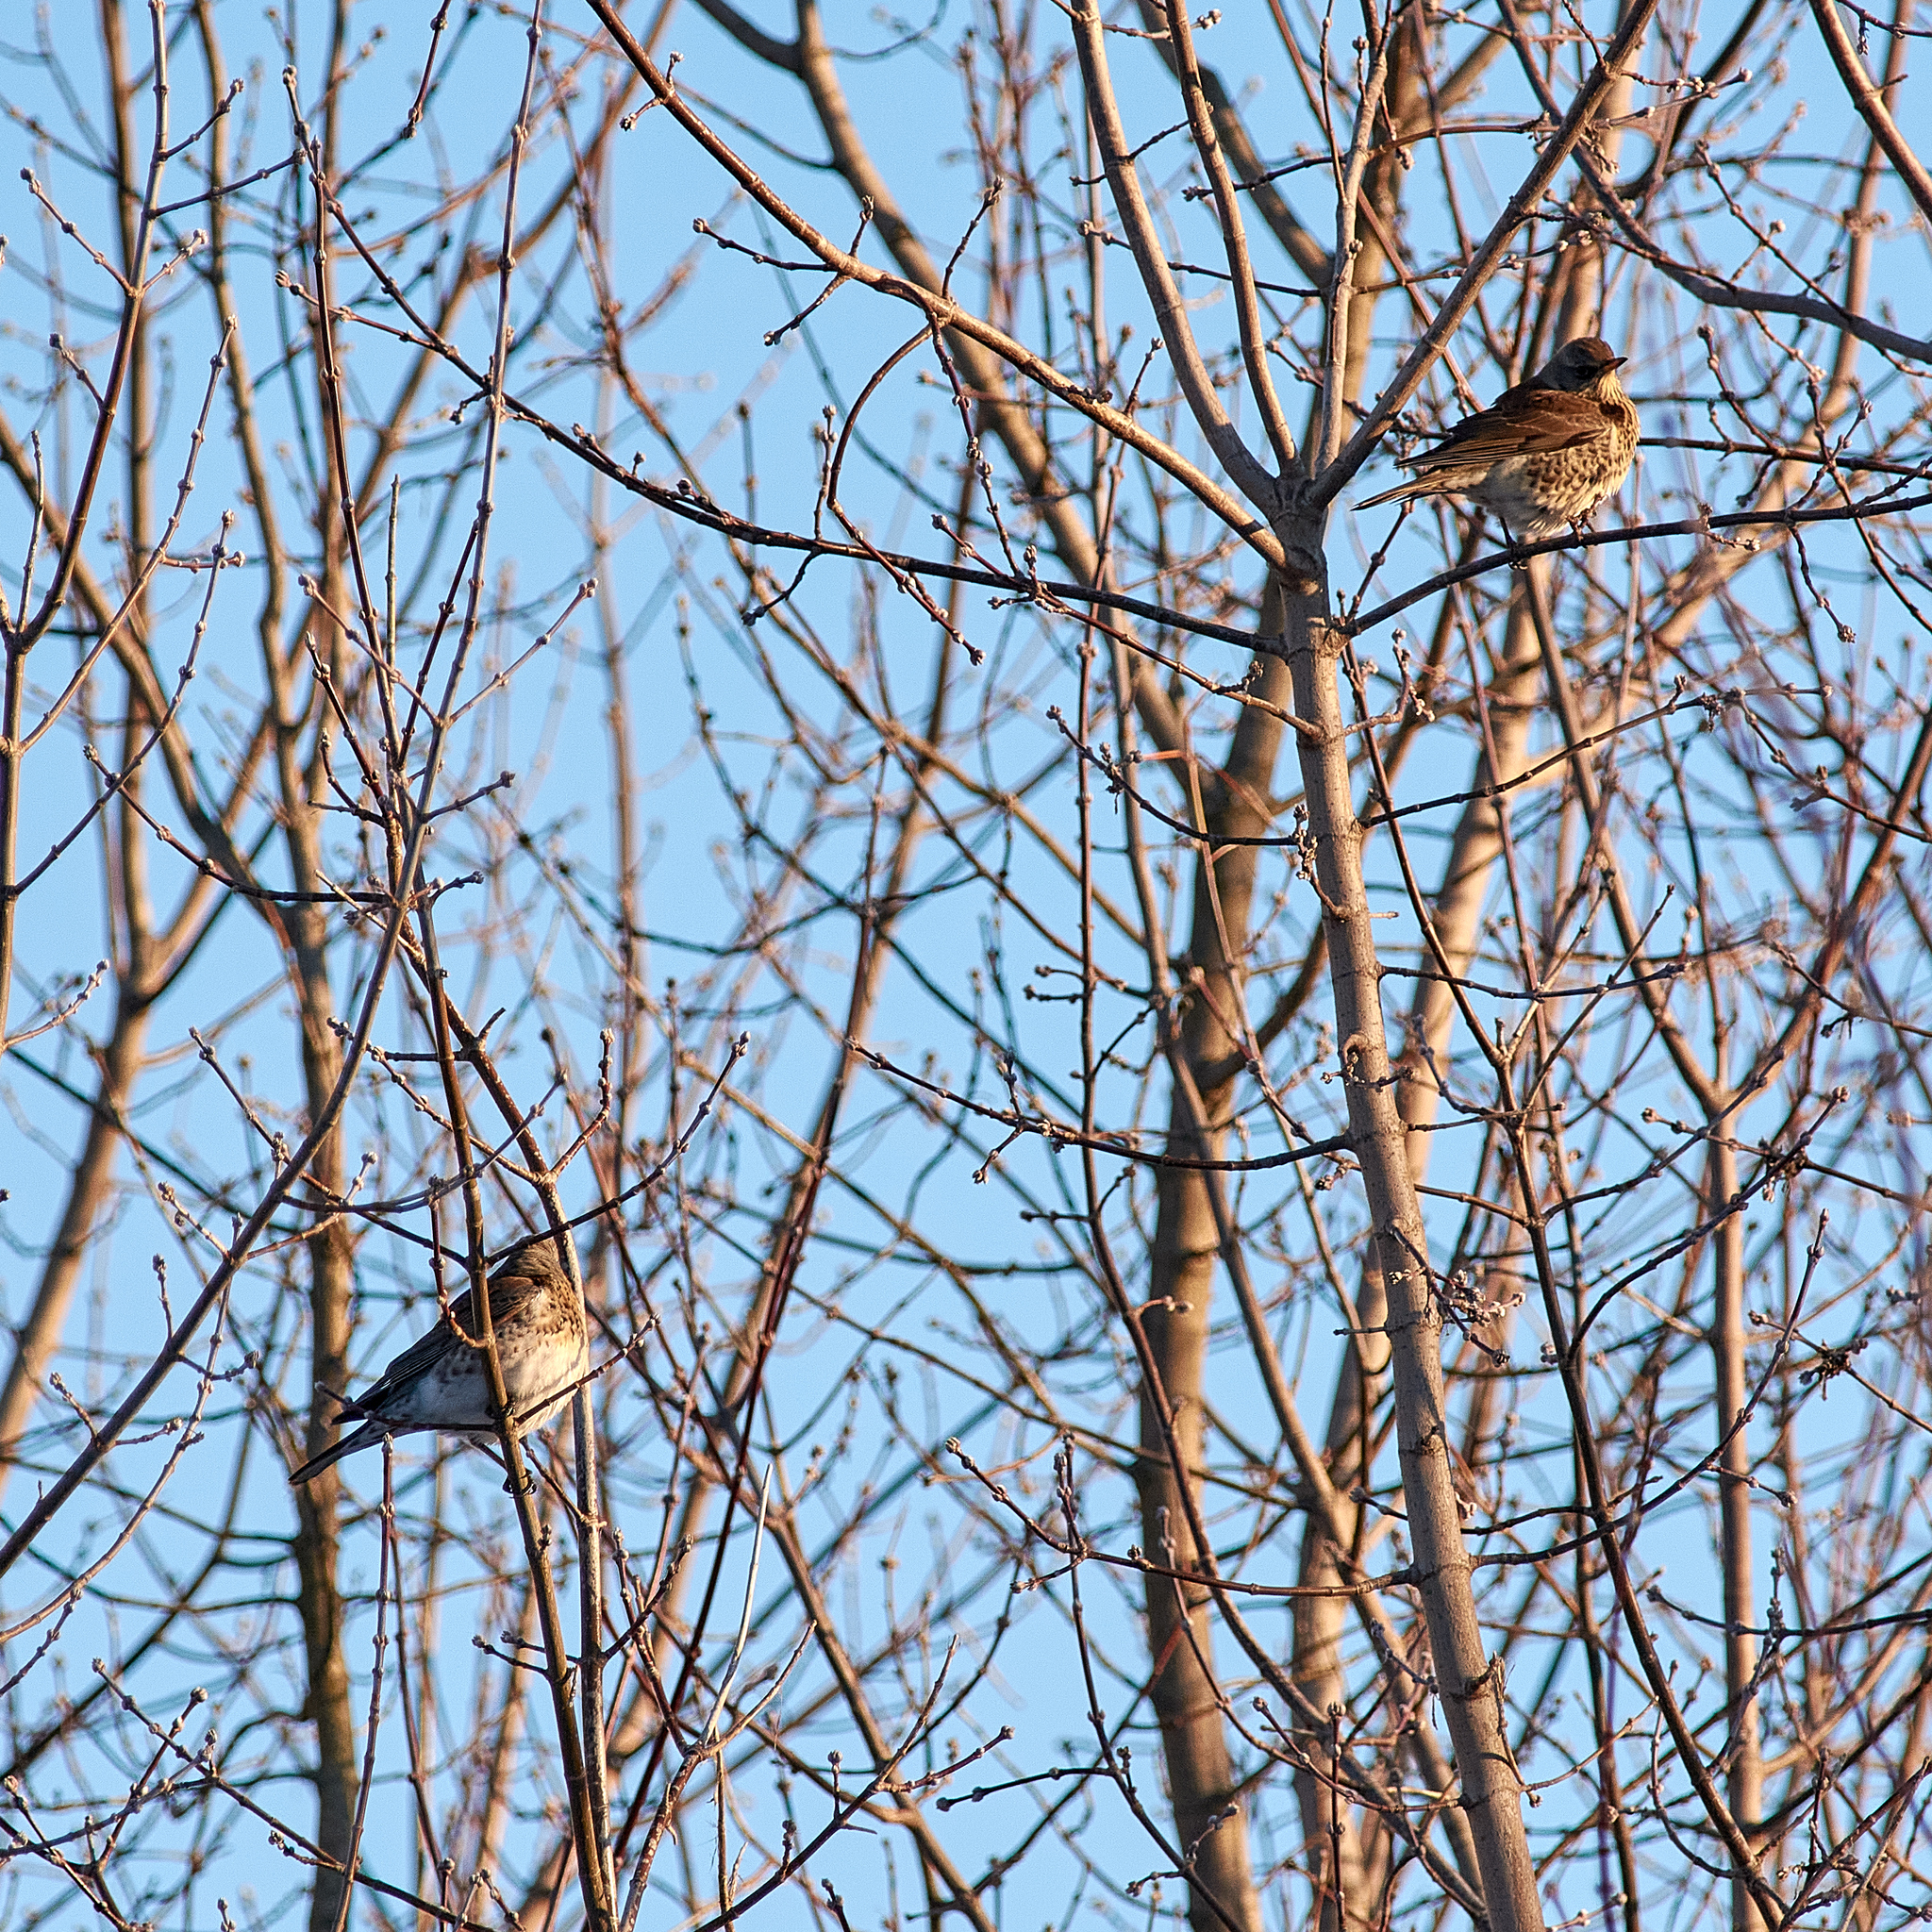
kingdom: Animalia
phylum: Chordata
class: Aves
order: Passeriformes
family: Turdidae
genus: Turdus
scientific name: Turdus pilaris
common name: Fieldfare
